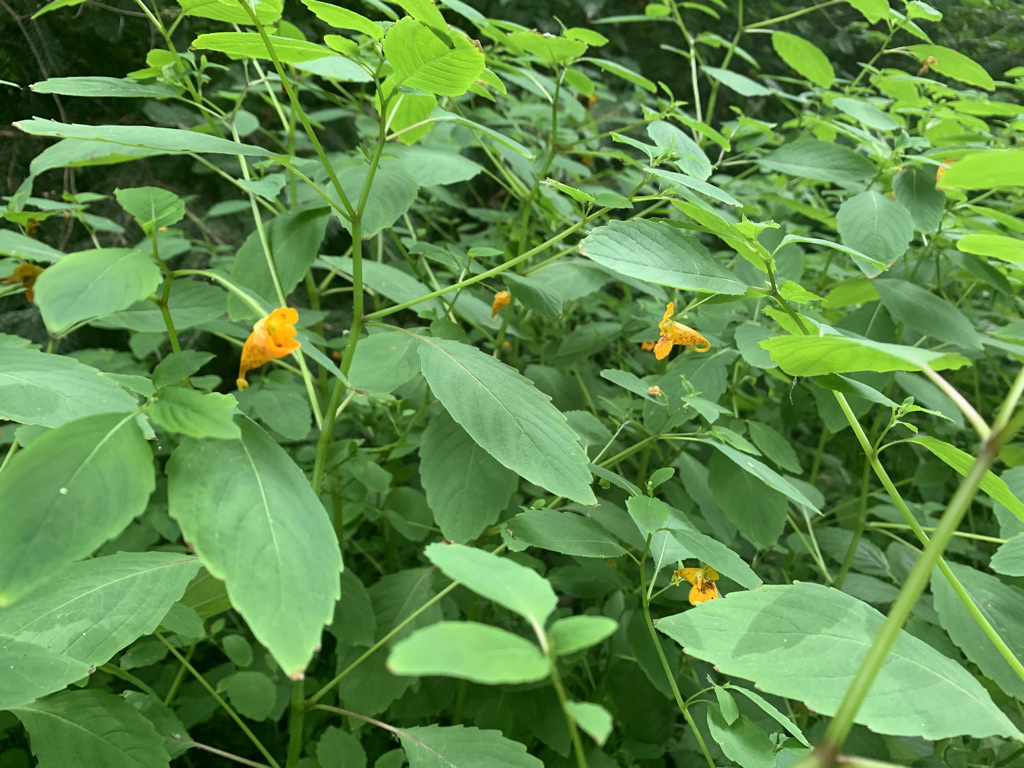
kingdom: Plantae
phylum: Tracheophyta
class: Magnoliopsida
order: Ericales
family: Balsaminaceae
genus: Impatiens
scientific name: Impatiens capensis
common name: Orange balsam
